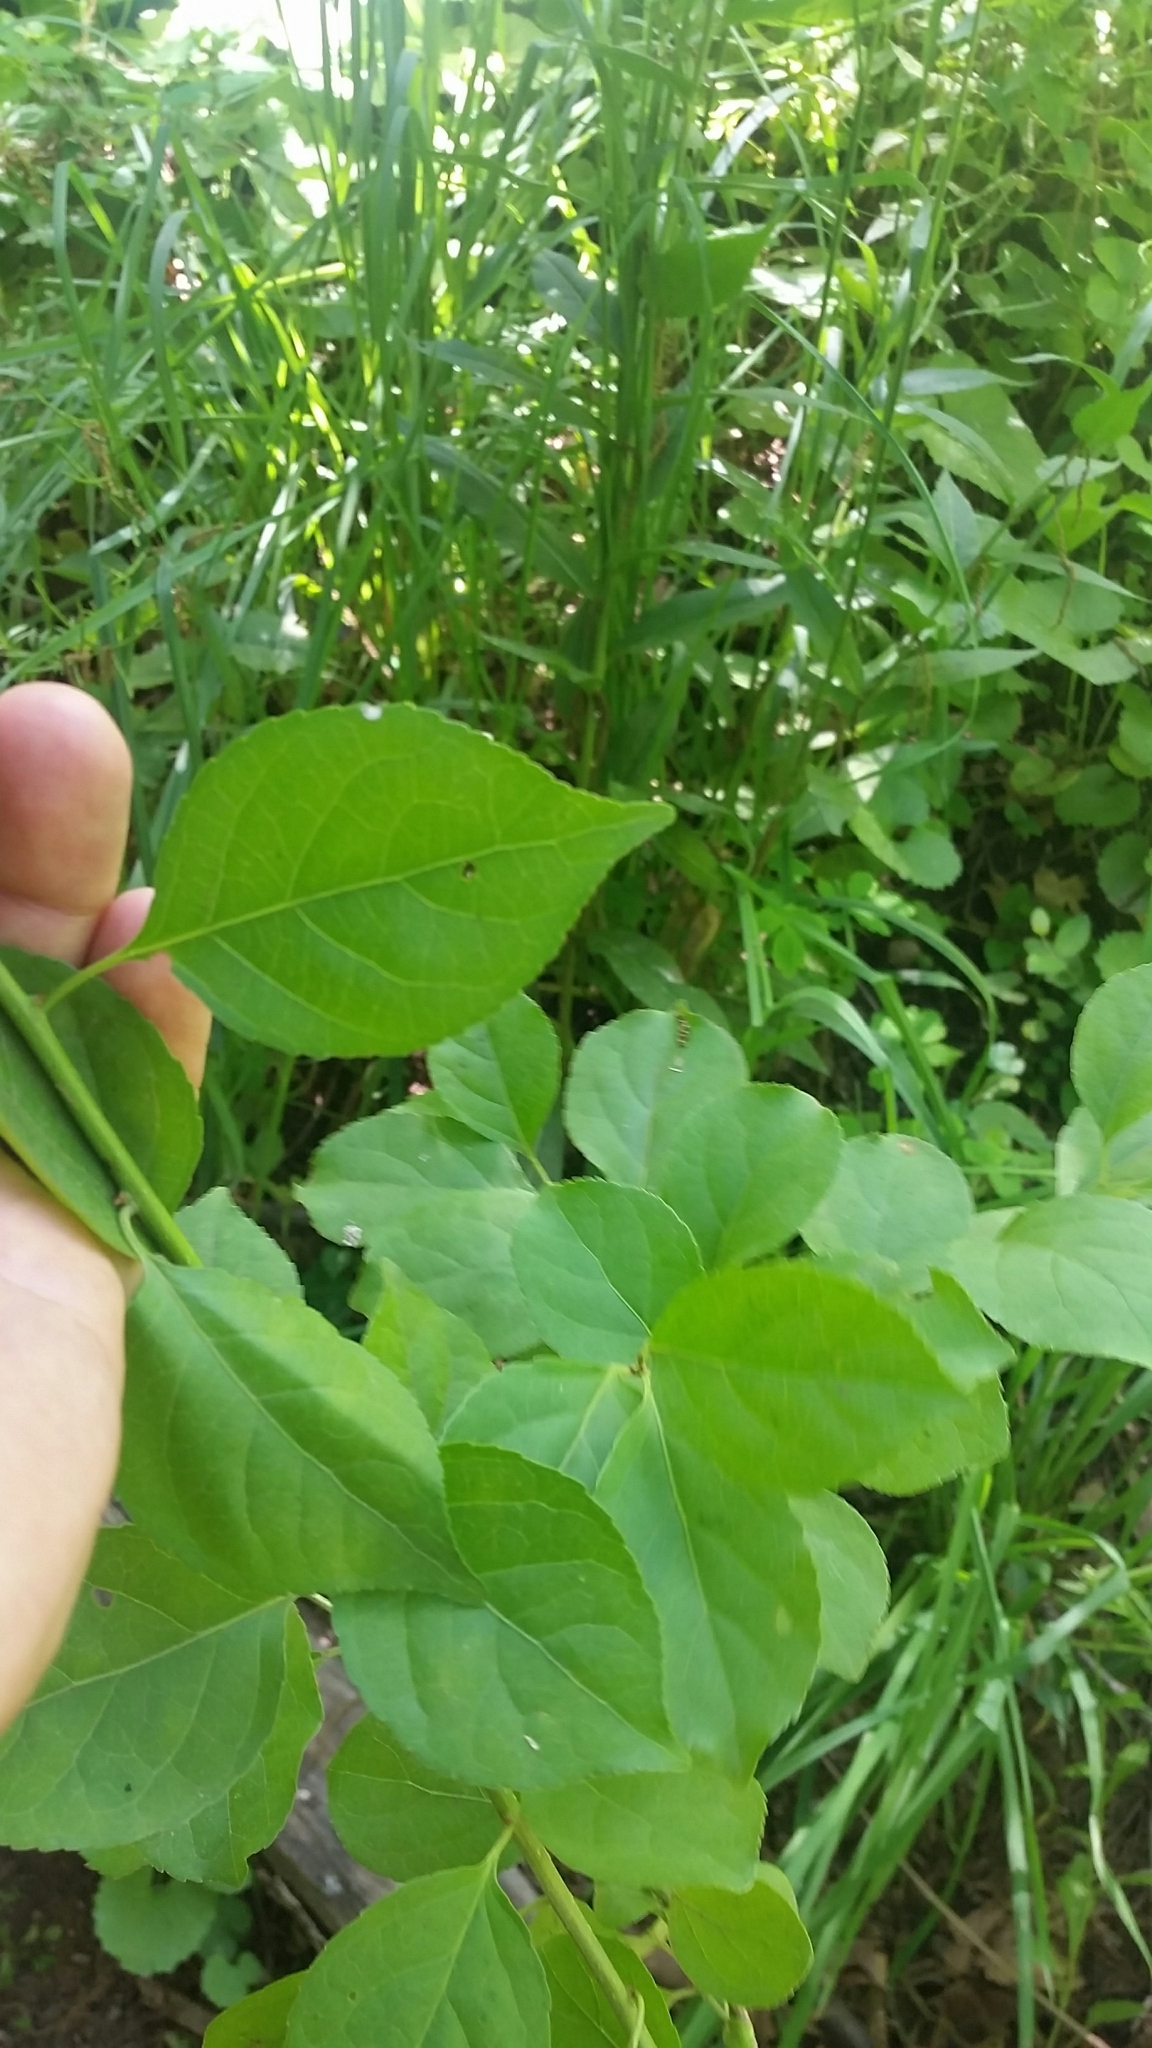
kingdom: Plantae
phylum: Tracheophyta
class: Magnoliopsida
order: Celastrales
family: Celastraceae
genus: Celastrus
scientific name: Celastrus orbiculatus
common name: Oriental bittersweet
